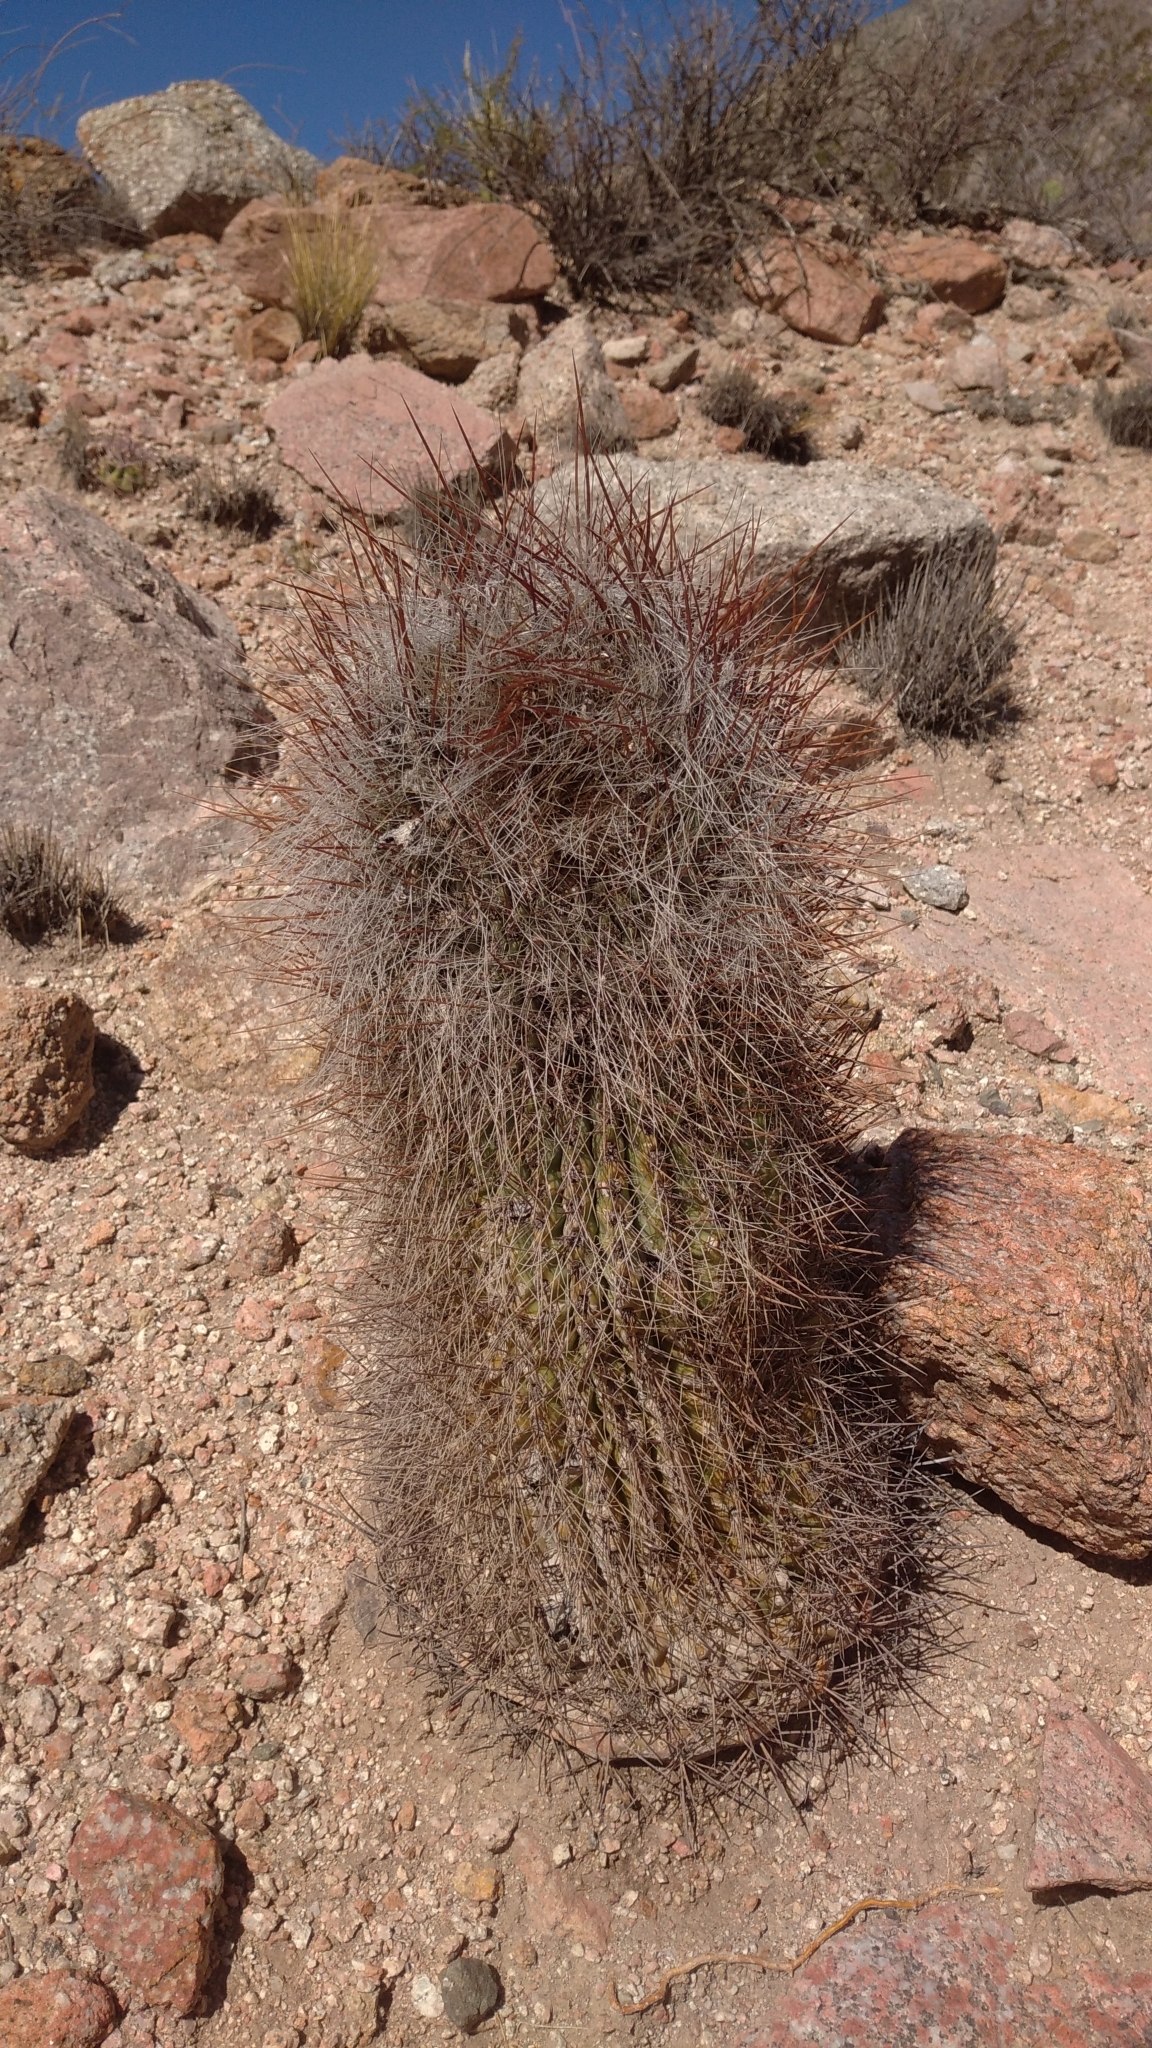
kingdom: Plantae
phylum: Tracheophyta
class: Magnoliopsida
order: Caryophyllales
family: Cactaceae
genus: Denmoza
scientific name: Denmoza rhodacantha
